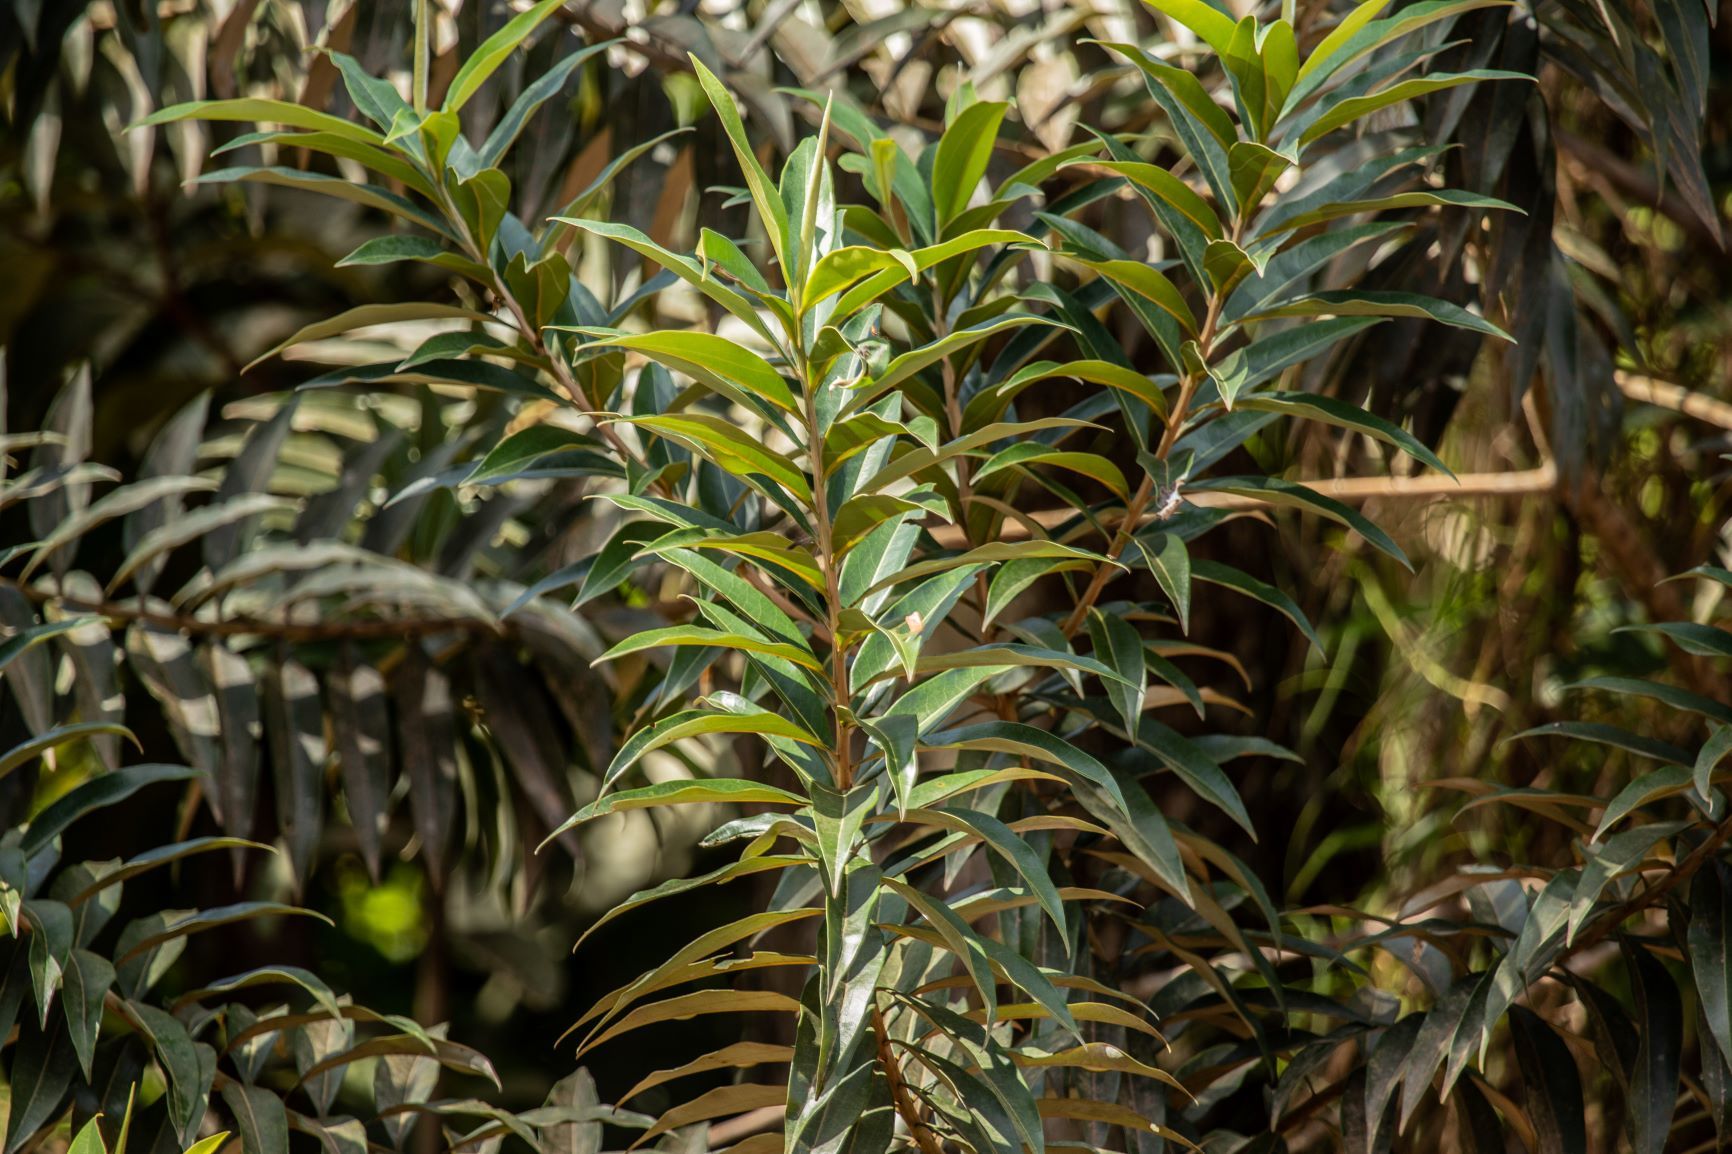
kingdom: Plantae
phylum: Tracheophyta
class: Magnoliopsida
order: Laurales
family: Lauraceae
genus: Ocotea
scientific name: Ocotea guianensis
